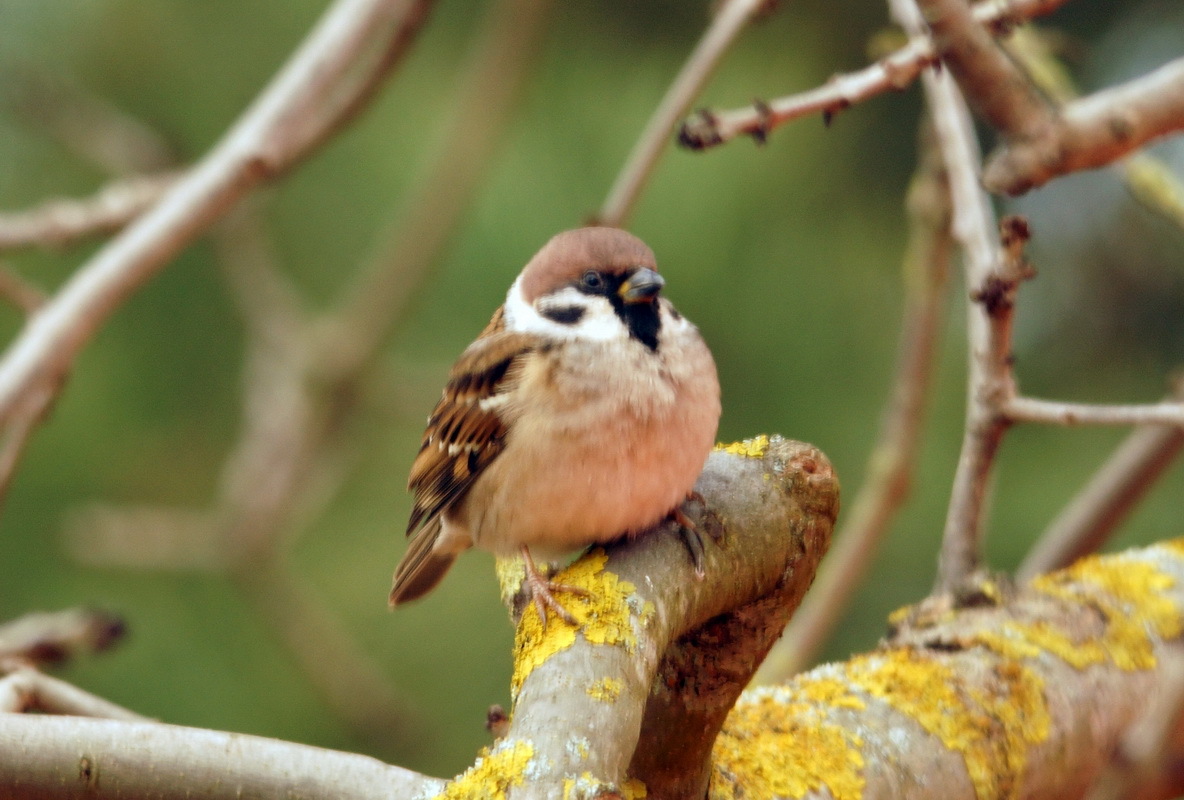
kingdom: Animalia
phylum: Chordata
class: Aves
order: Passeriformes
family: Passeridae
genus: Passer
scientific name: Passer montanus
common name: Eurasian tree sparrow
